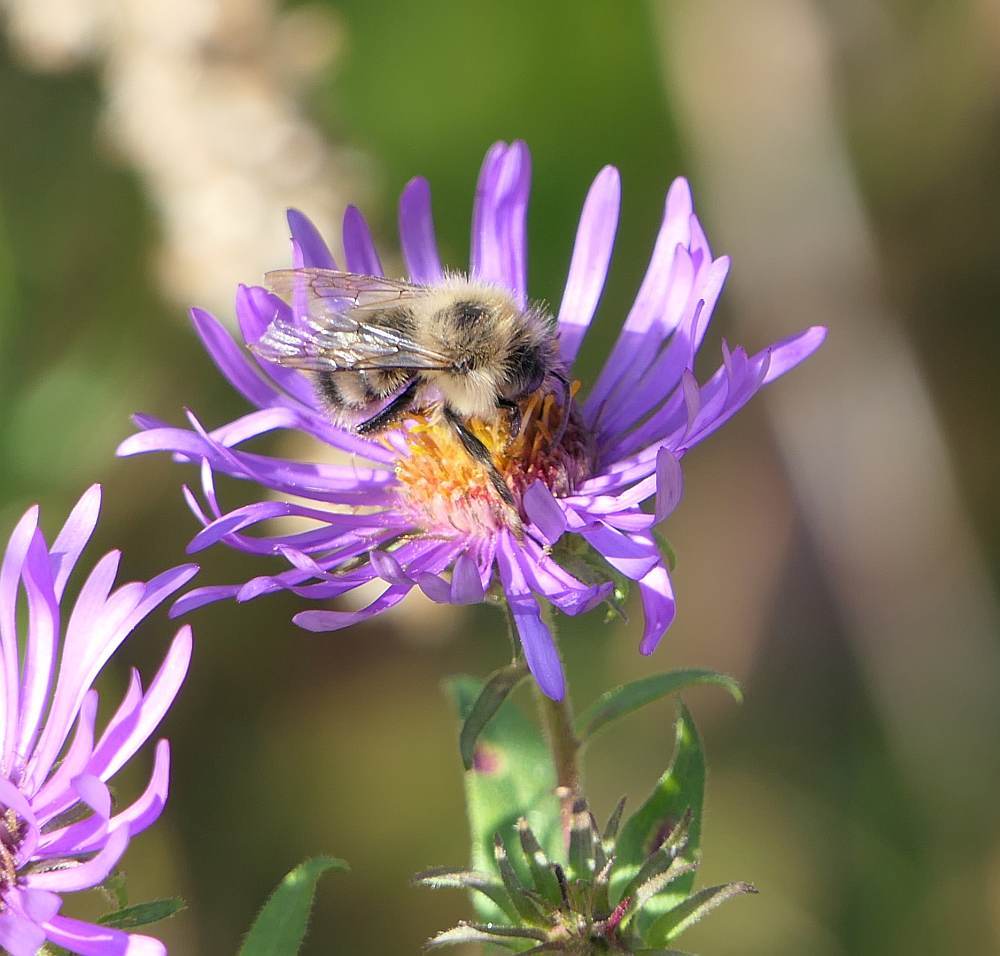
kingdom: Animalia
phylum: Arthropoda
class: Insecta
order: Hymenoptera
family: Apidae
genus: Pyrobombus
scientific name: Pyrobombus
